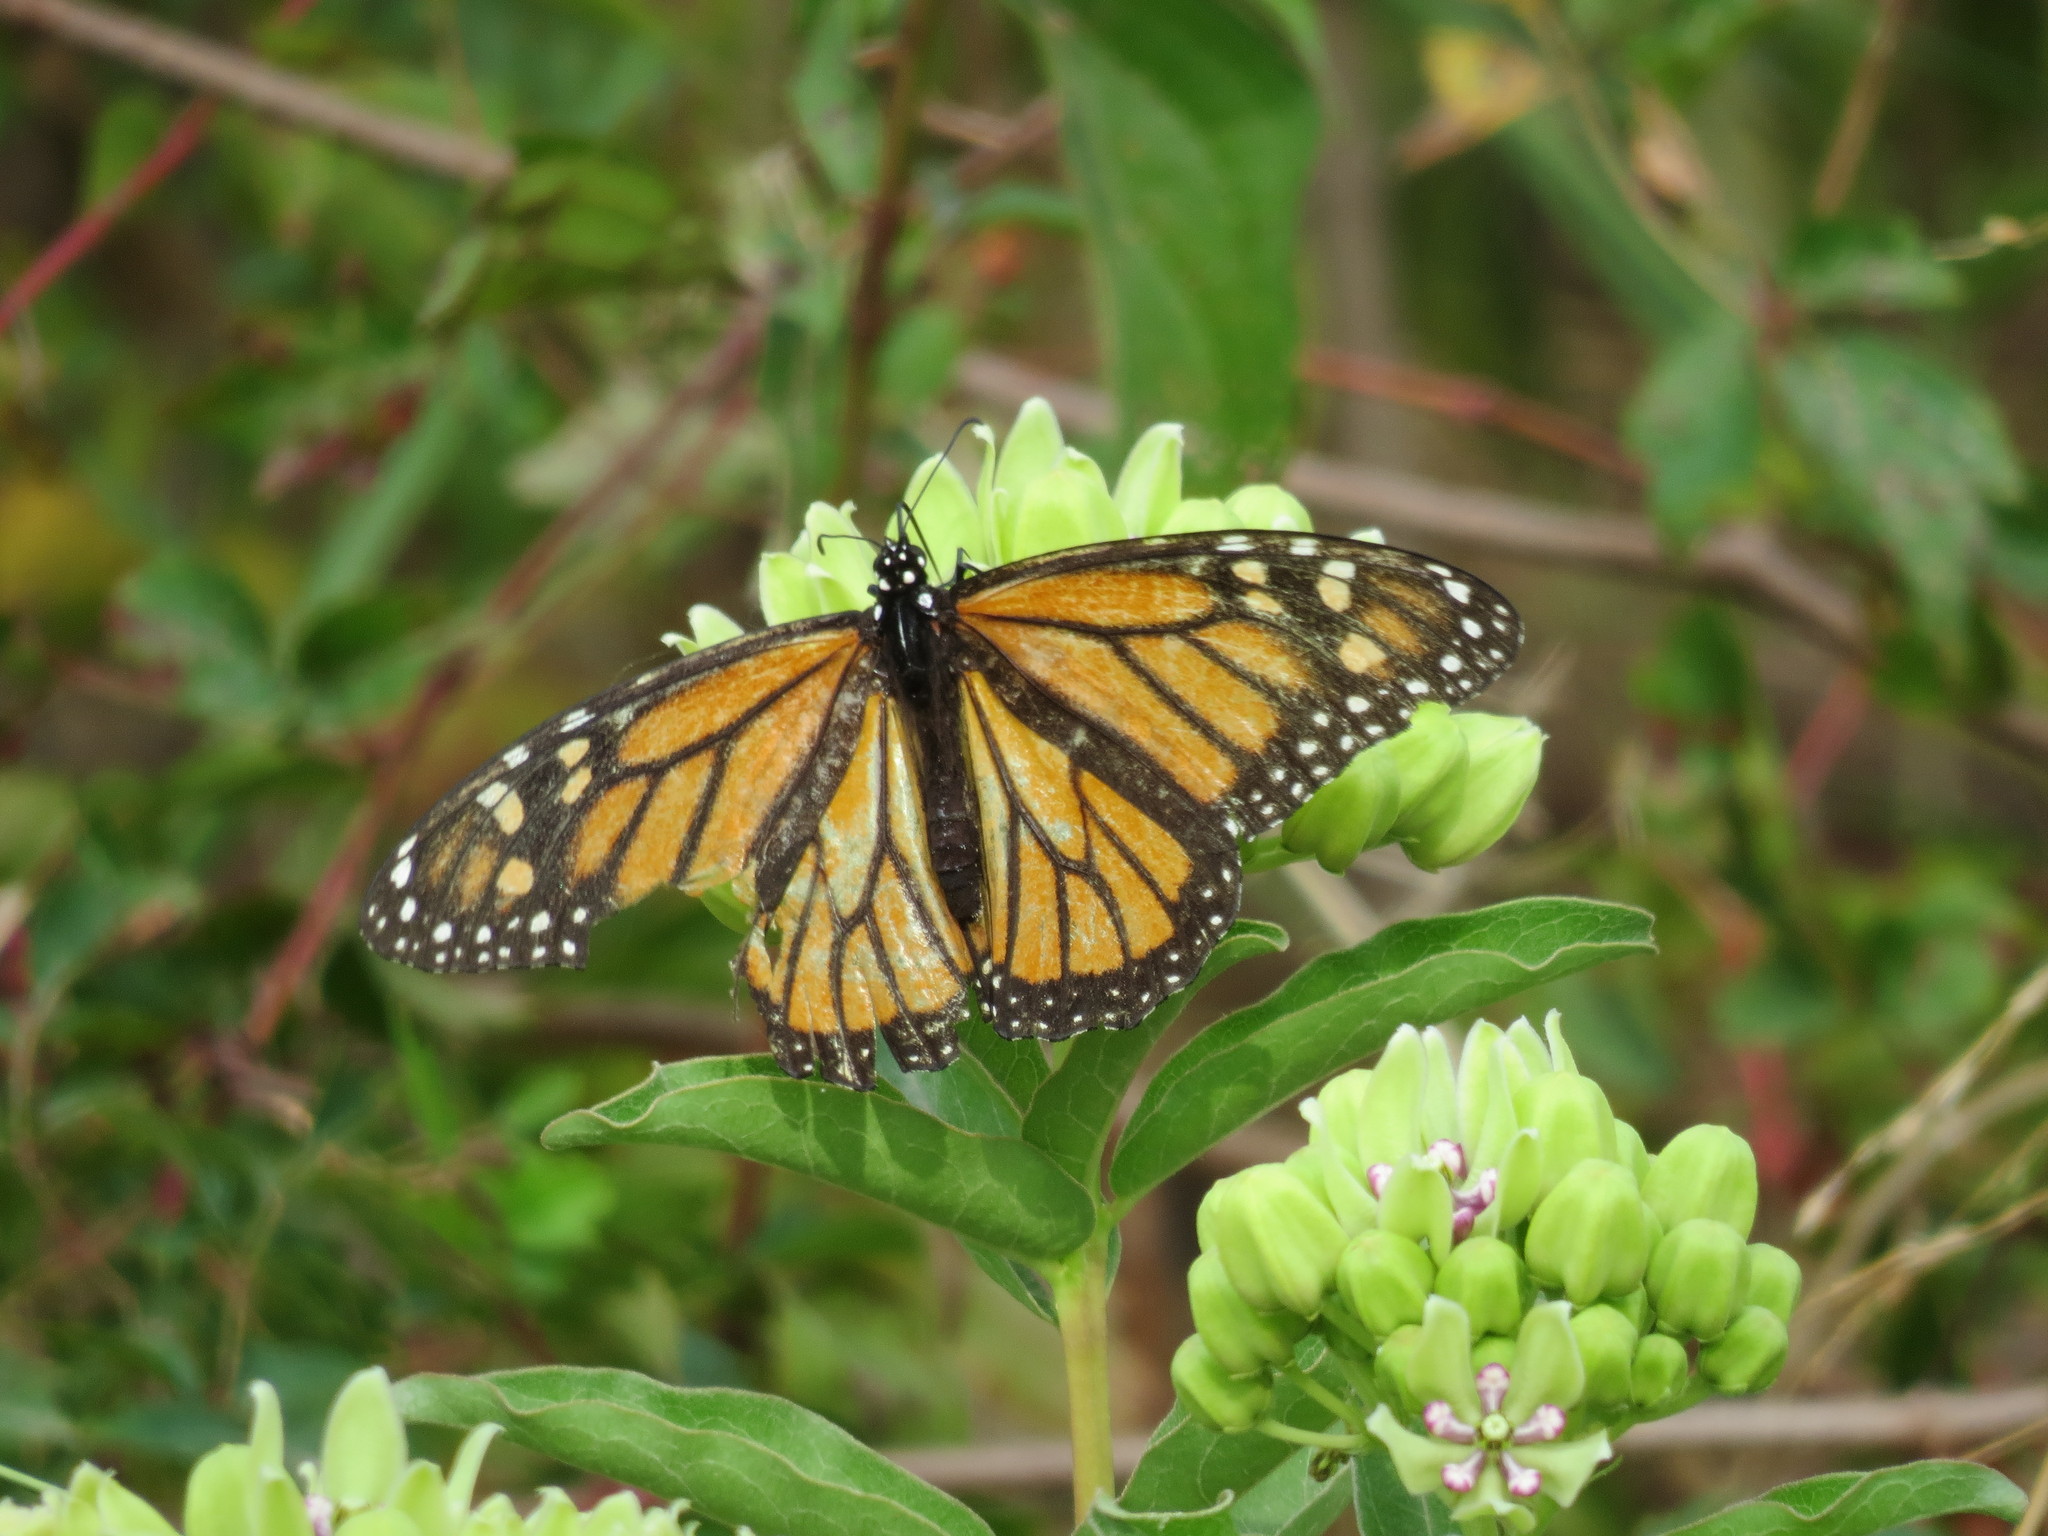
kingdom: Animalia
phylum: Arthropoda
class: Insecta
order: Lepidoptera
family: Nymphalidae
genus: Danaus
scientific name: Danaus plexippus
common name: Monarch
